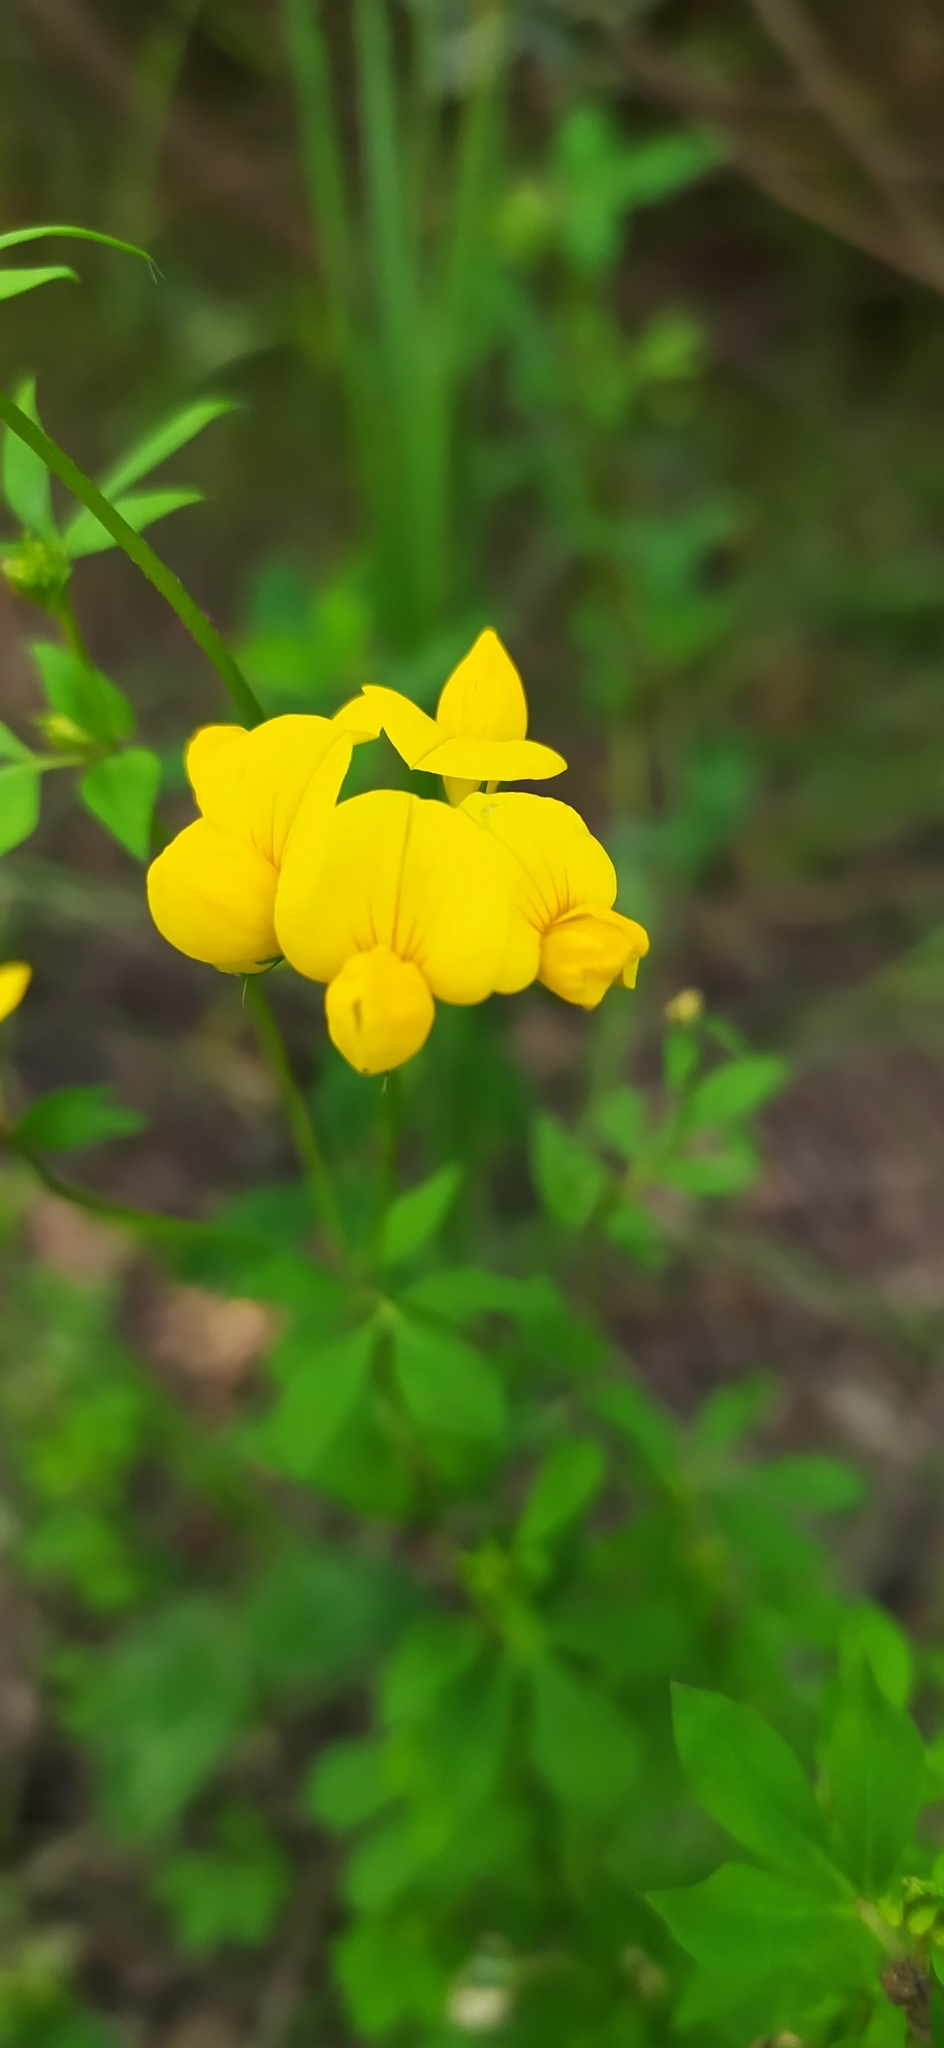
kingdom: Plantae
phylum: Tracheophyta
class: Magnoliopsida
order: Fabales
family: Fabaceae
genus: Lotus
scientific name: Lotus corniculatus
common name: Common bird's-foot-trefoil
